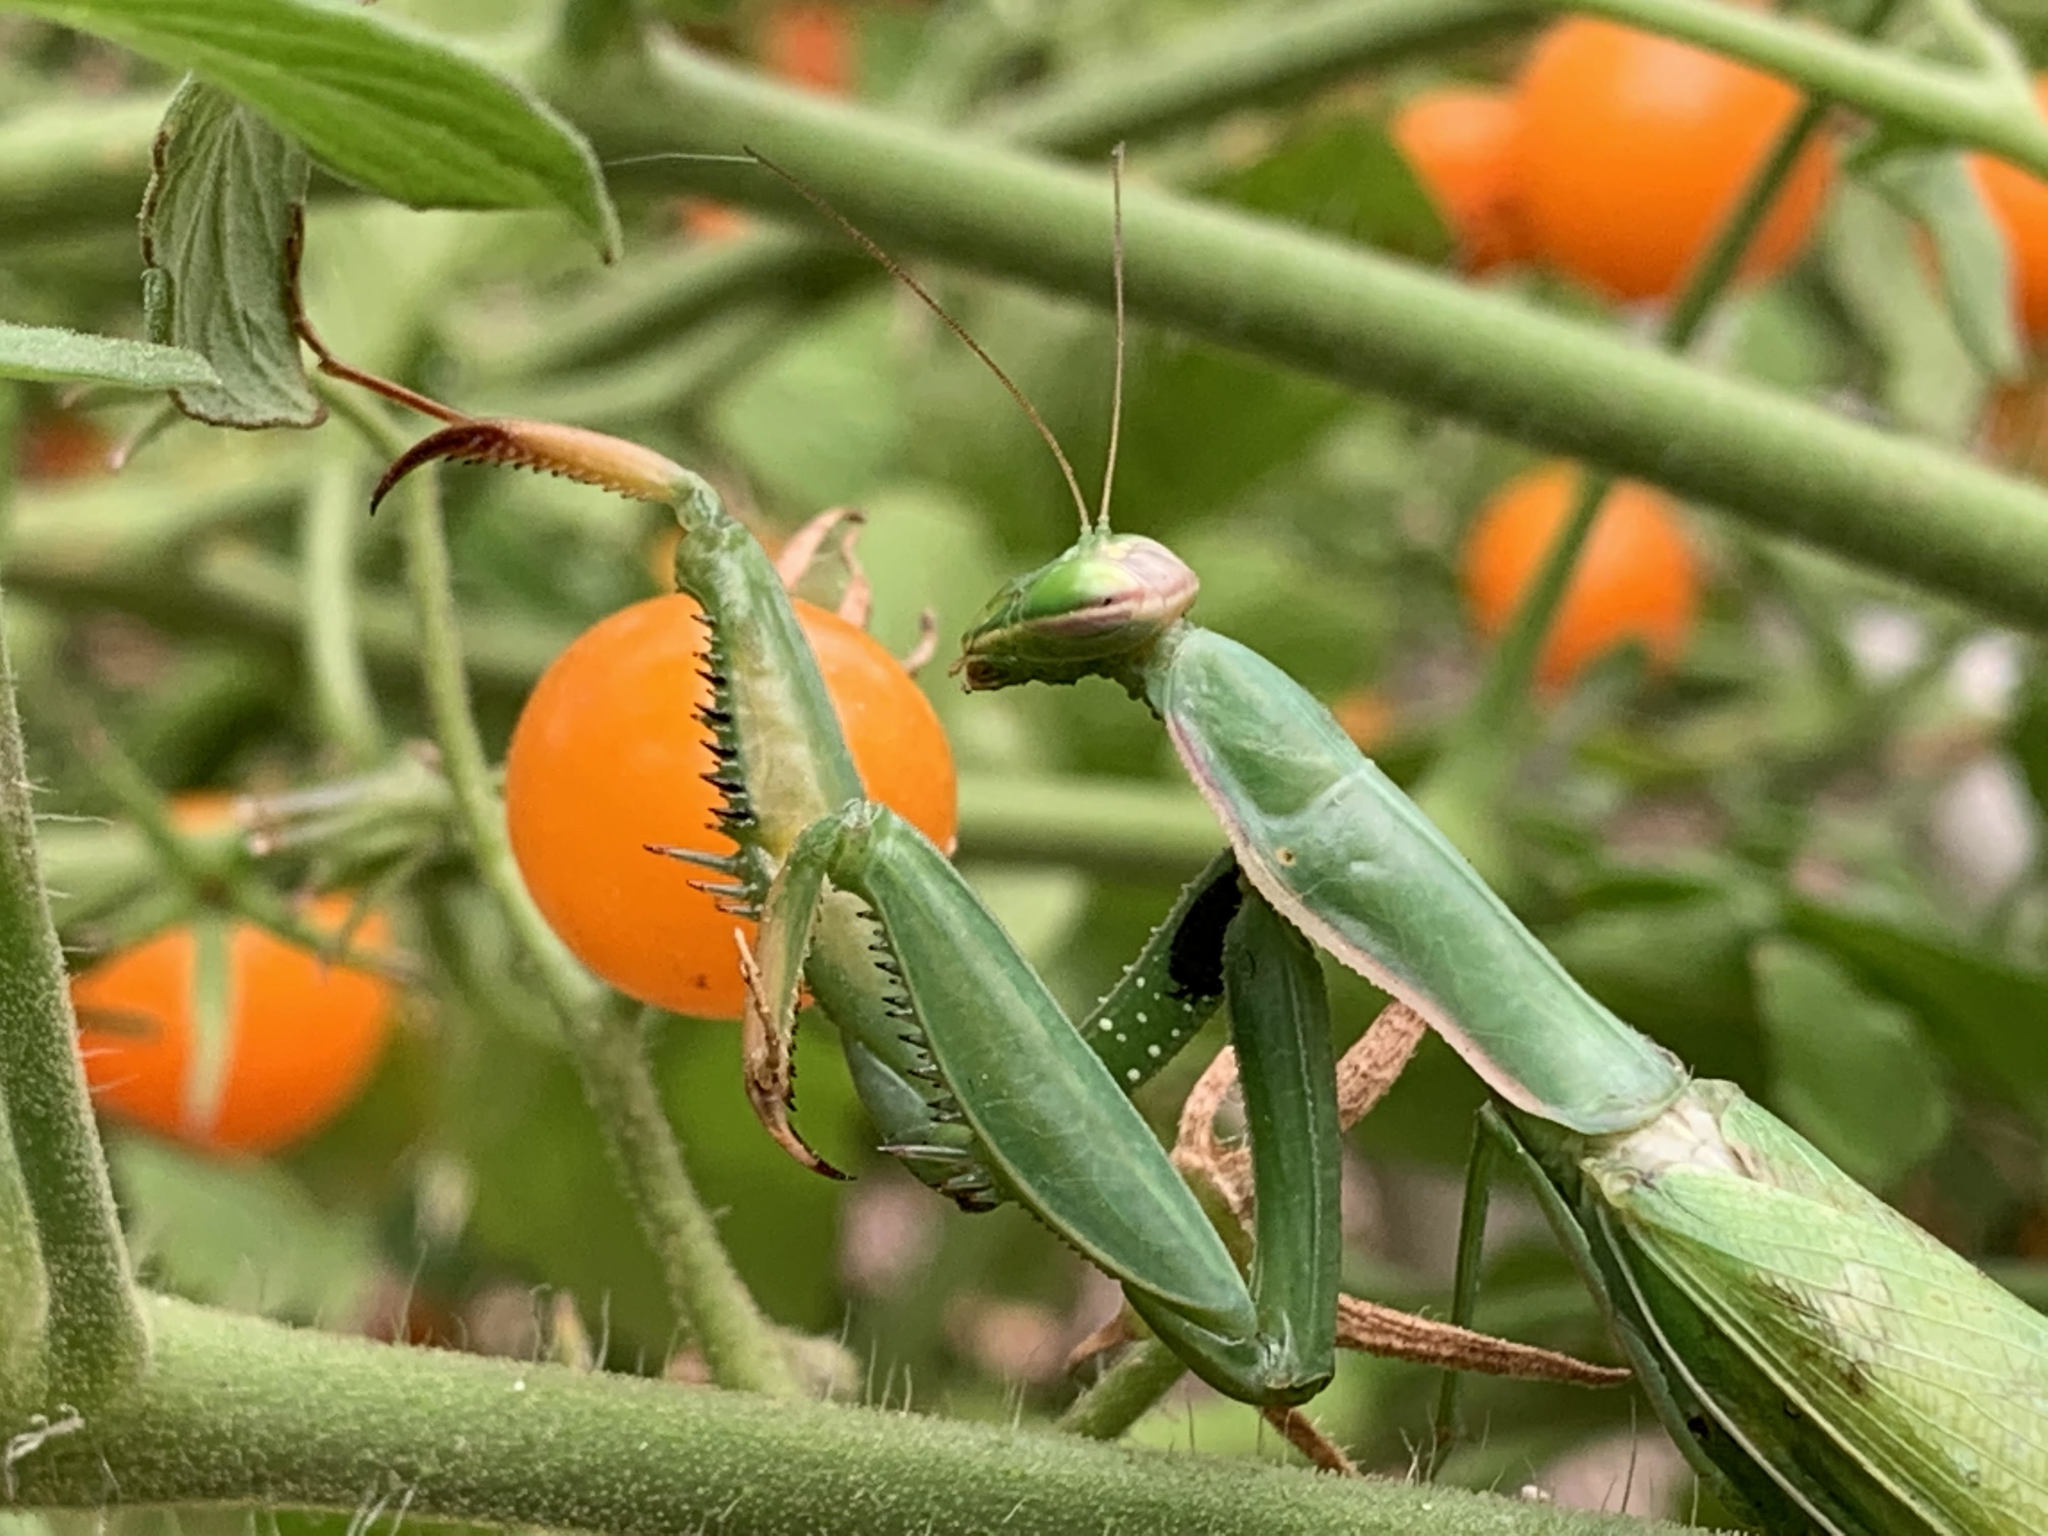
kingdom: Animalia
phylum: Arthropoda
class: Insecta
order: Mantodea
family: Mantidae
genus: Mantis
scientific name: Mantis religiosa
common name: Praying mantis
